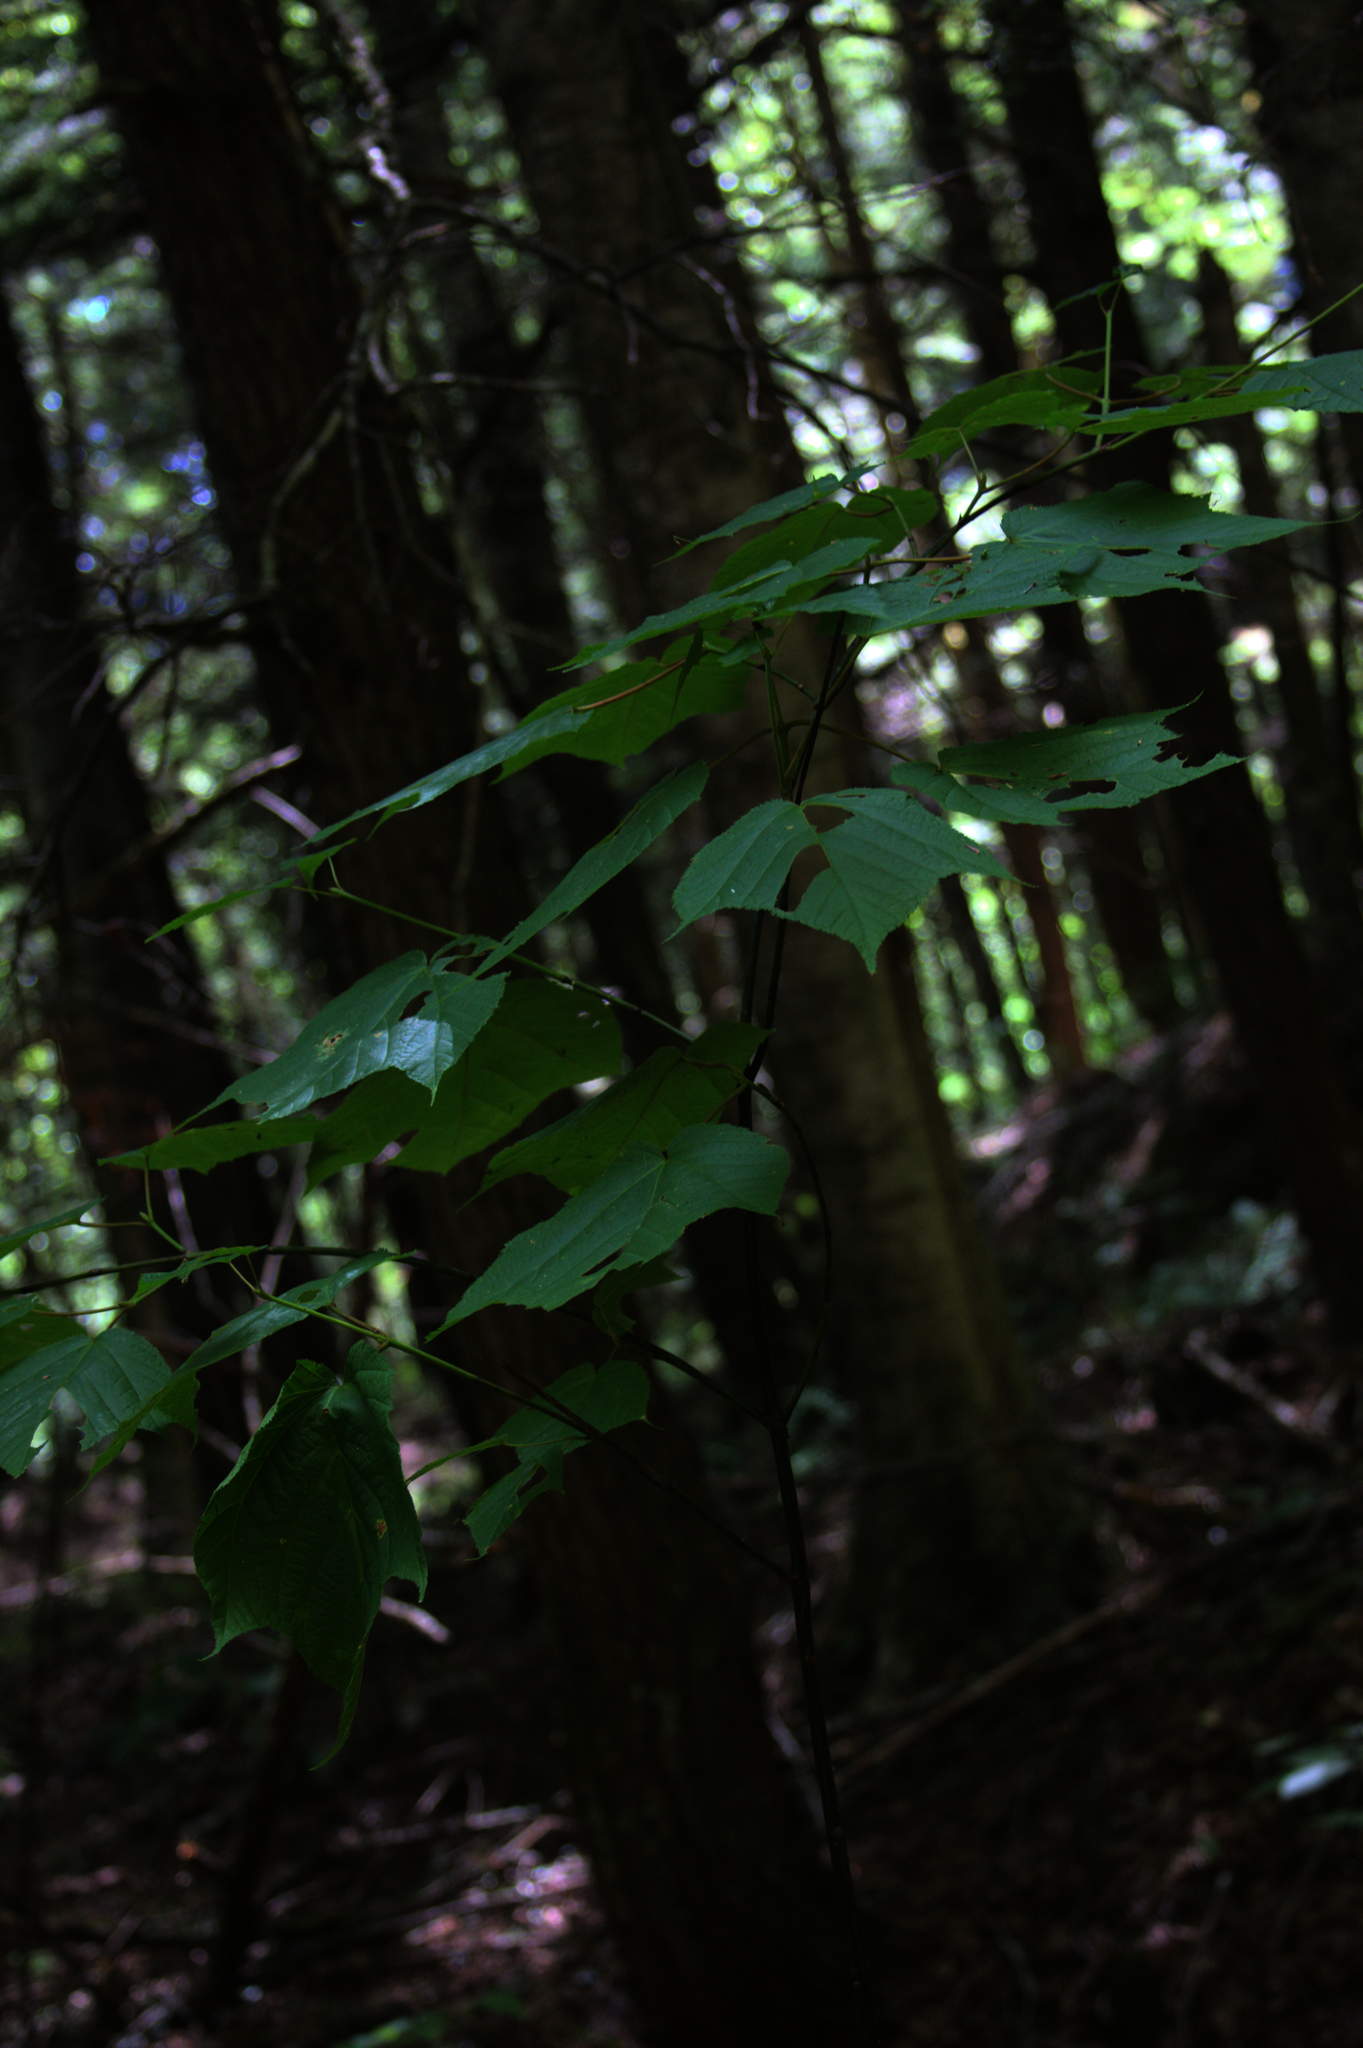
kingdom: Plantae
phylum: Tracheophyta
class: Magnoliopsida
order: Sapindales
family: Sapindaceae
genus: Acer
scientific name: Acer pensylvanicum
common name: Moosewood
